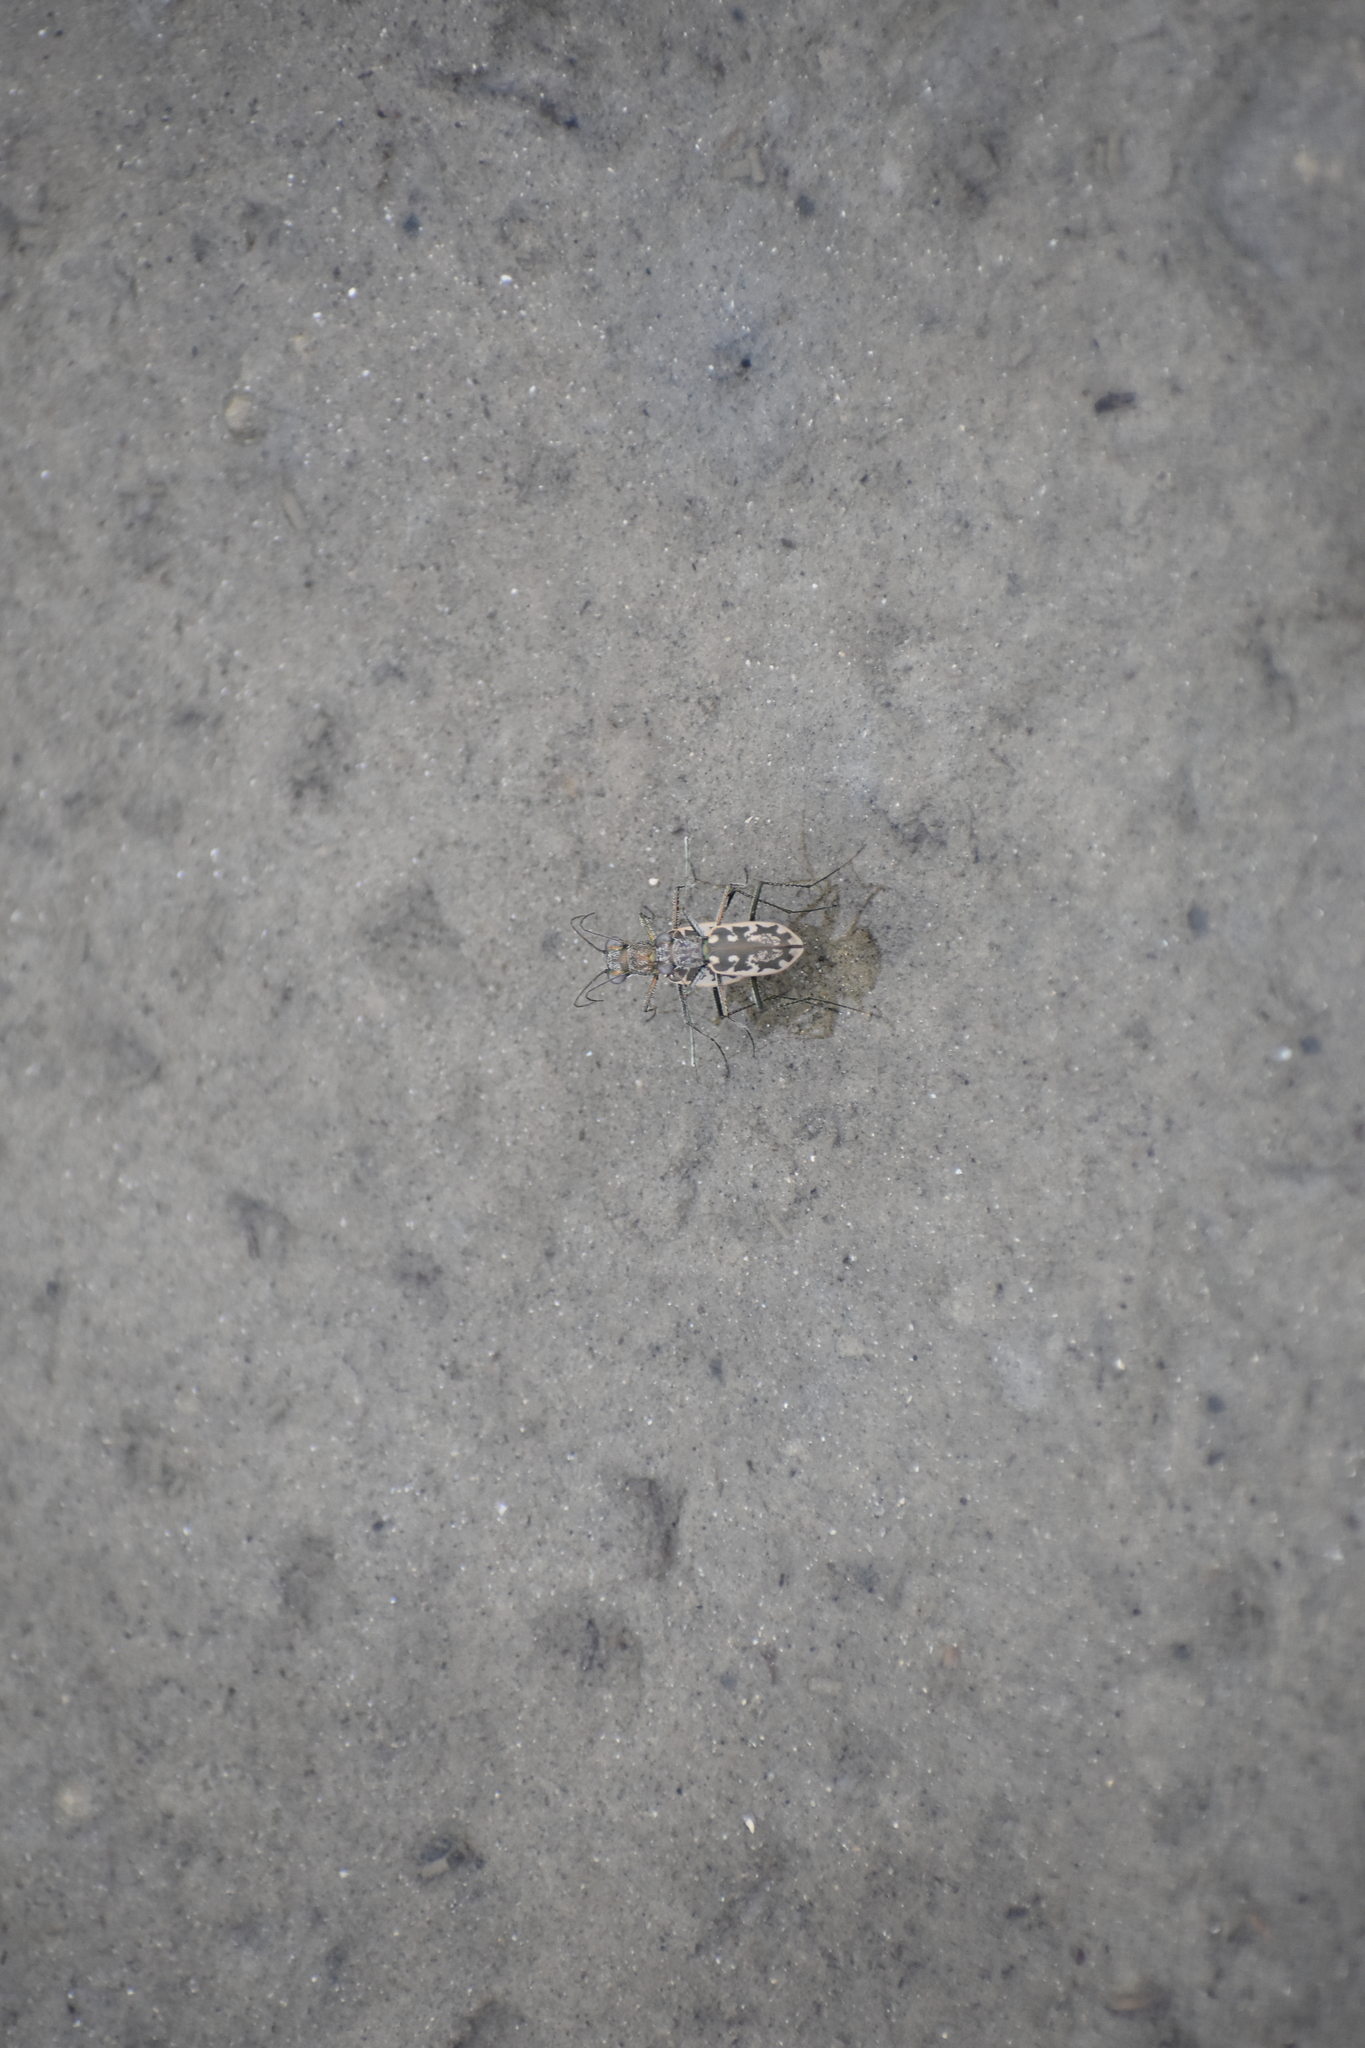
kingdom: Animalia
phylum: Arthropoda
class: Insecta
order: Coleoptera
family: Carabidae
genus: Ellipsoptera
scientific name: Ellipsoptera marginata
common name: Margined tiger beetle
